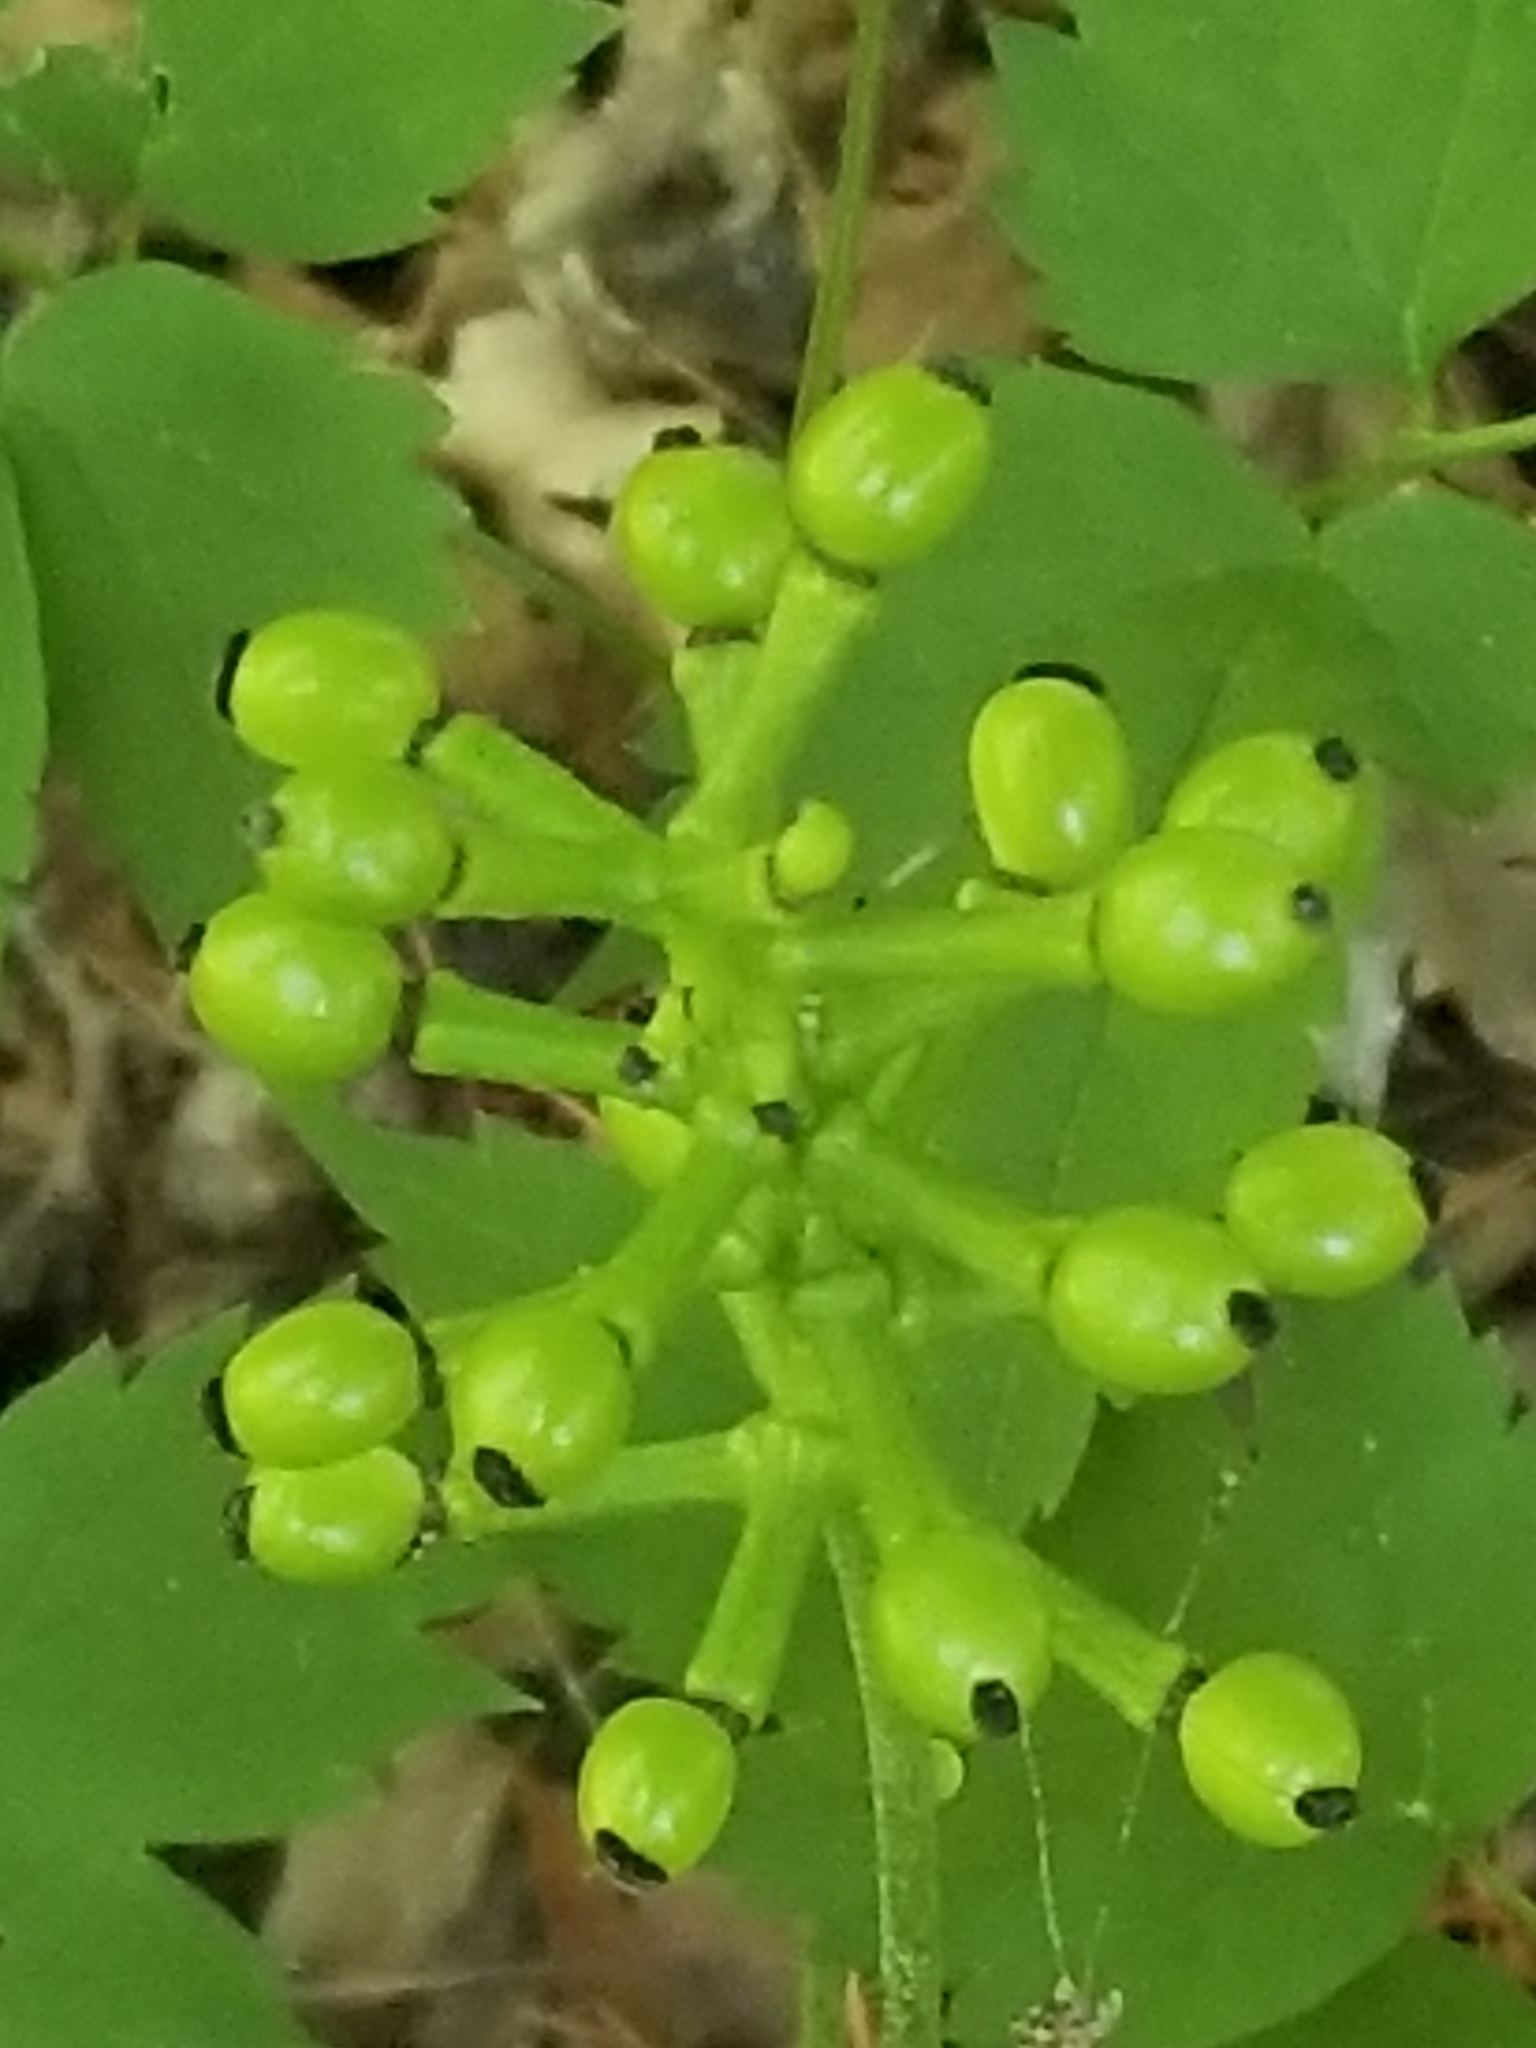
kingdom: Plantae
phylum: Tracheophyta
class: Magnoliopsida
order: Ranunculales
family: Ranunculaceae
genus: Actaea
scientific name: Actaea pachypoda
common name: Doll's-eyes
